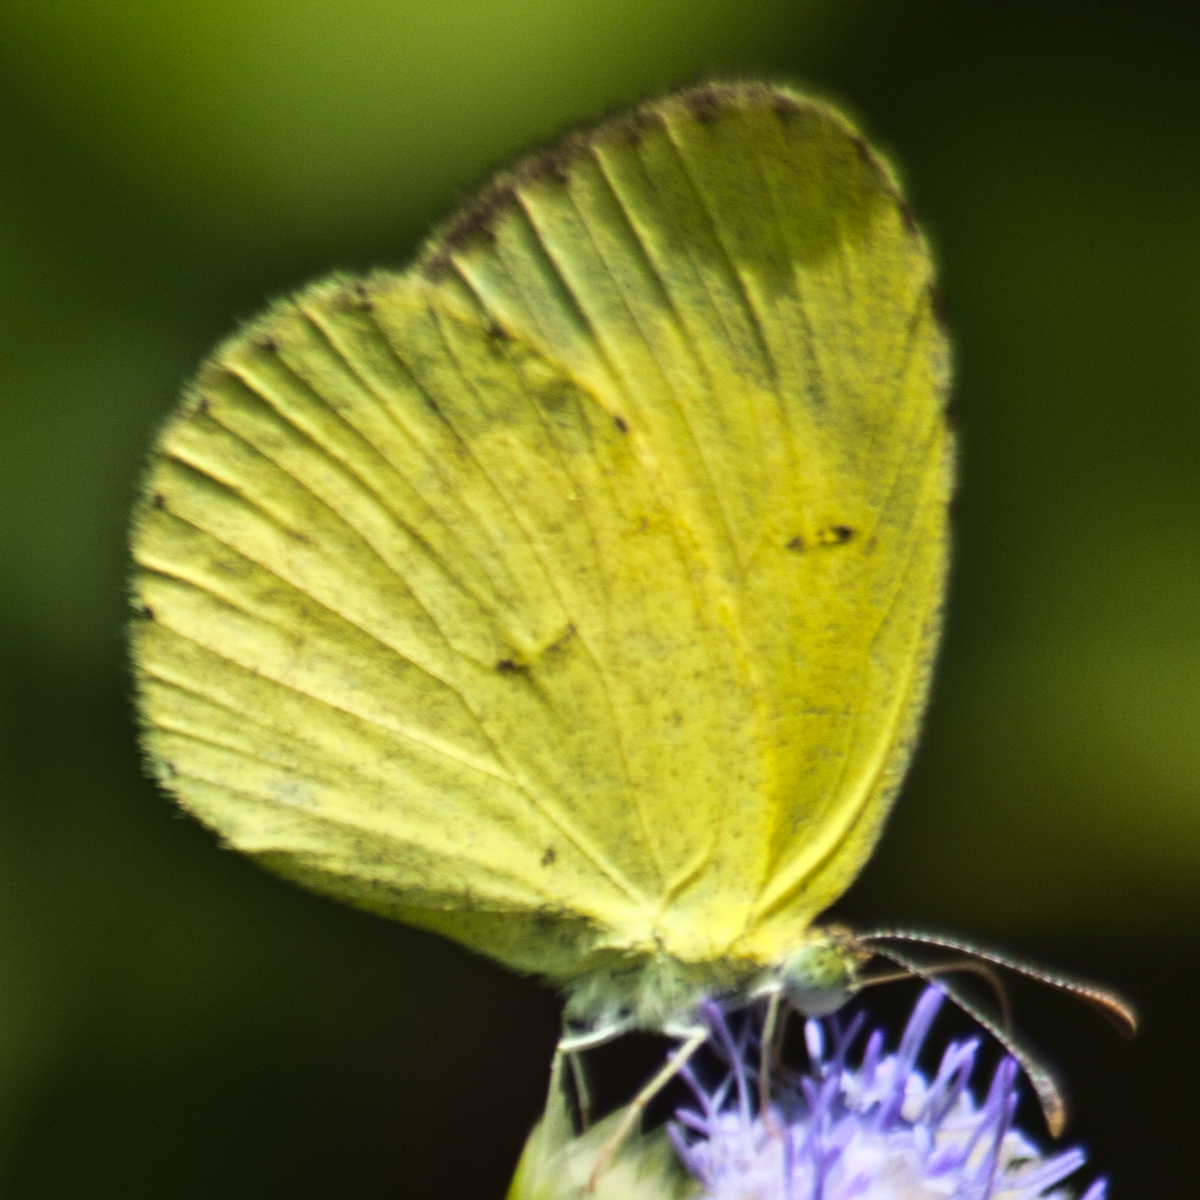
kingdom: Animalia
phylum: Arthropoda
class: Insecta
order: Lepidoptera
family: Pieridae
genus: Eurema
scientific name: Eurema brigitta
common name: Small grass yellow
